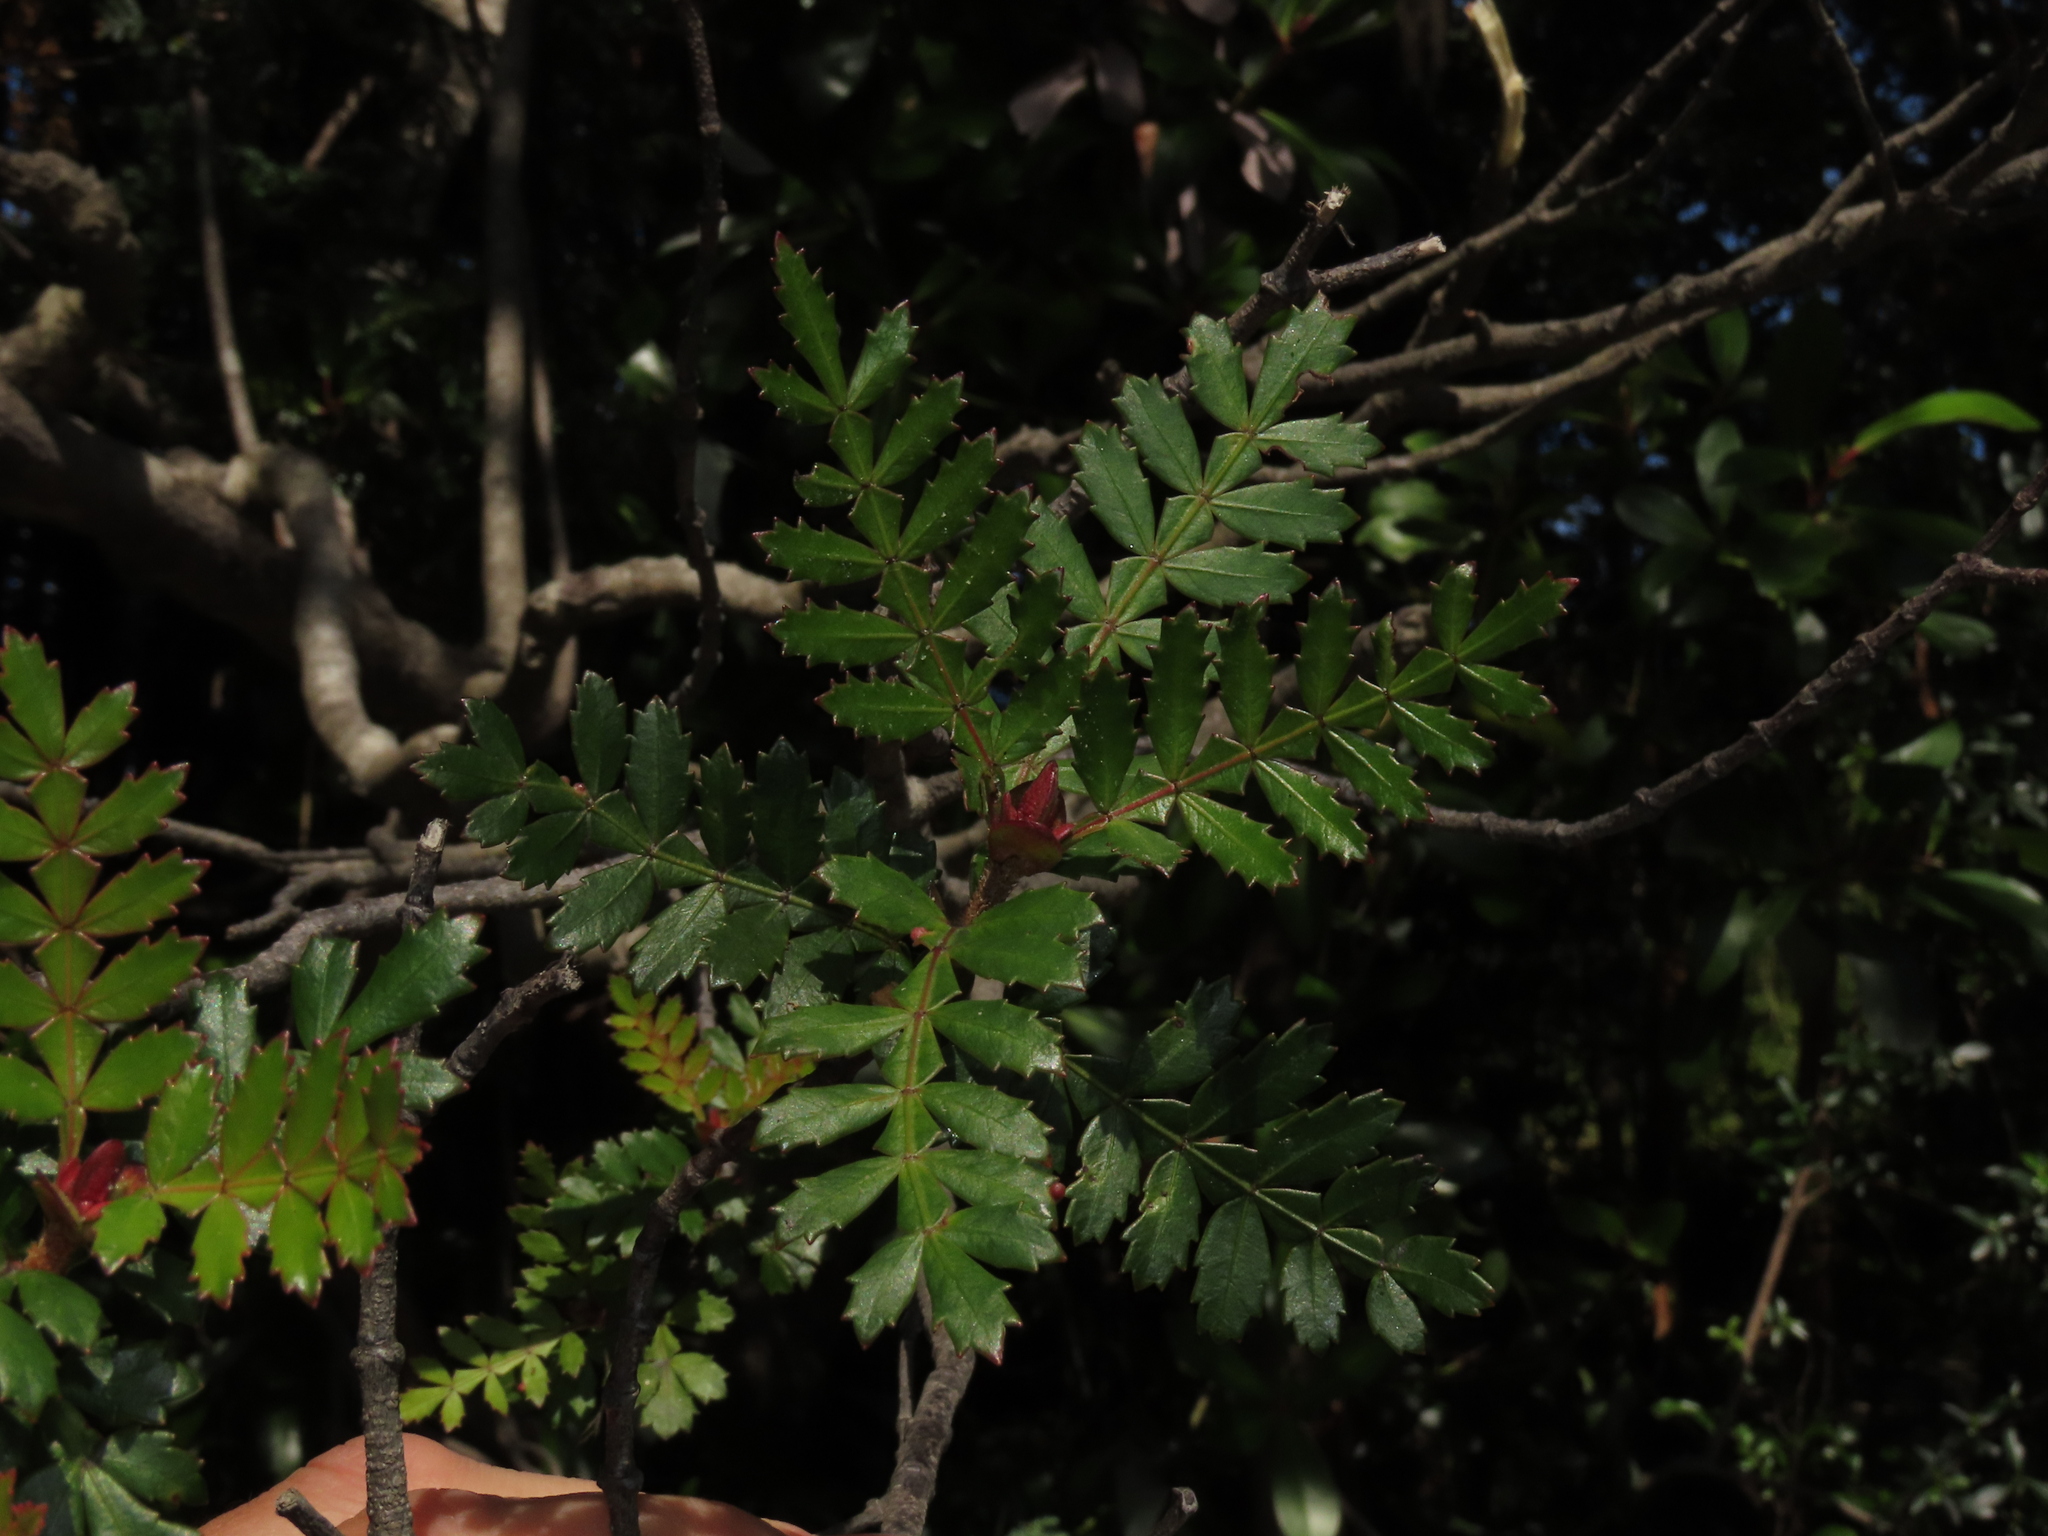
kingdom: Plantae
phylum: Tracheophyta
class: Magnoliopsida
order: Oxalidales
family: Cunoniaceae
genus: Weinmannia
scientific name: Weinmannia trichosperma
